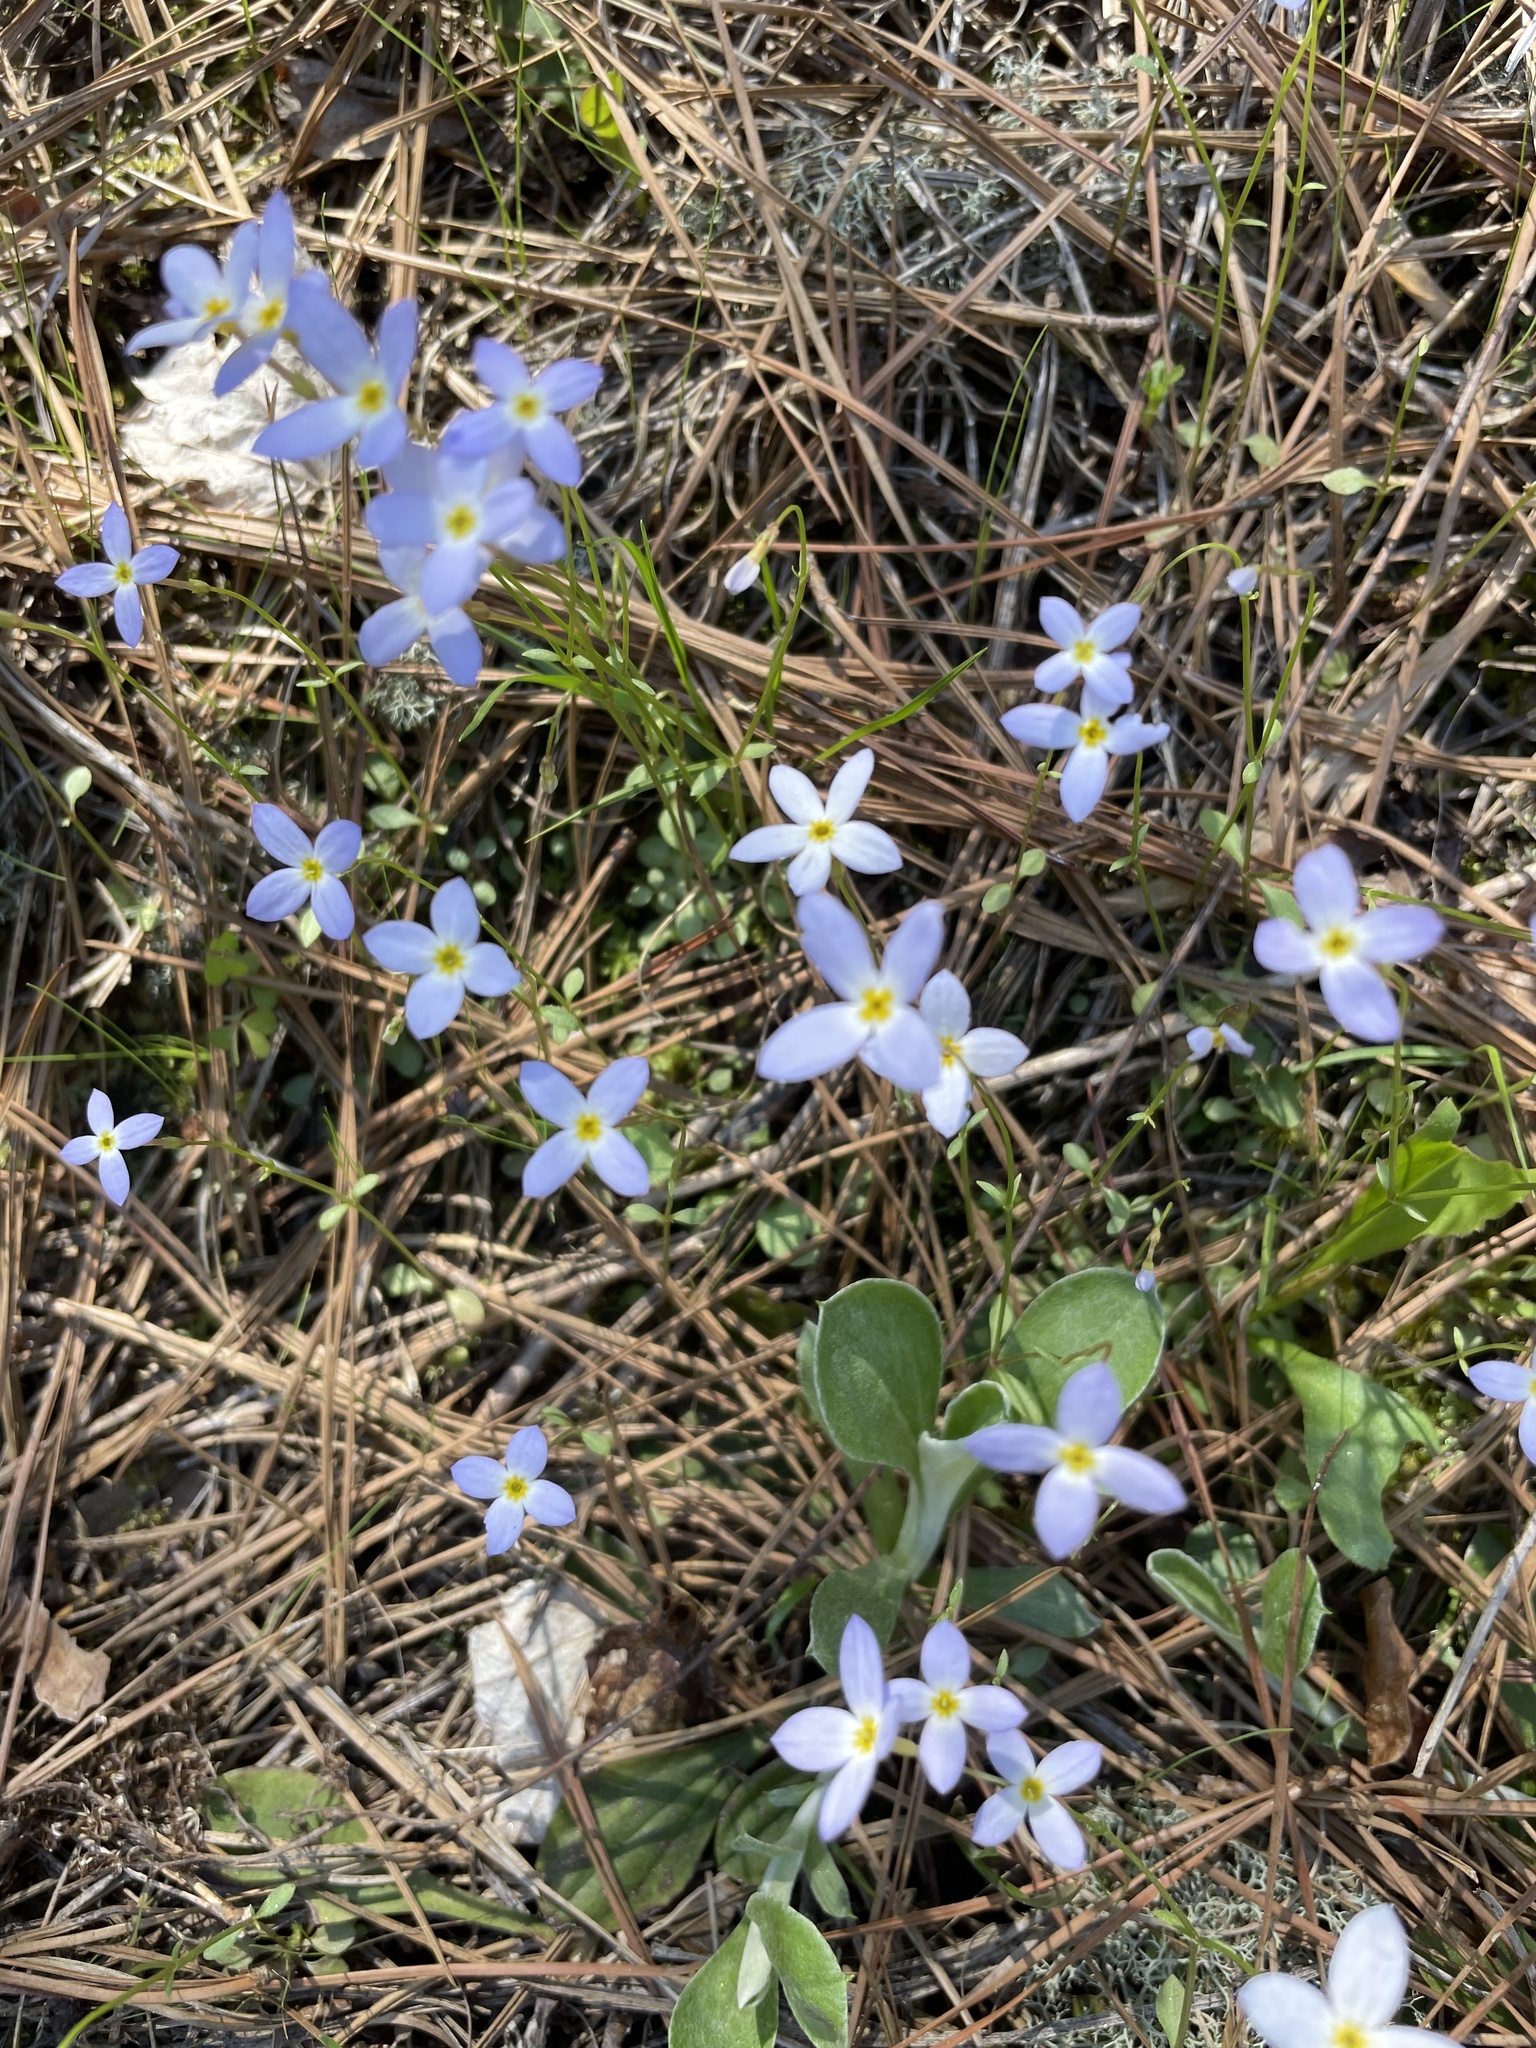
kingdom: Plantae
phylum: Tracheophyta
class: Magnoliopsida
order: Gentianales
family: Rubiaceae
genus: Houstonia
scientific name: Houstonia caerulea
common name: Bluets
